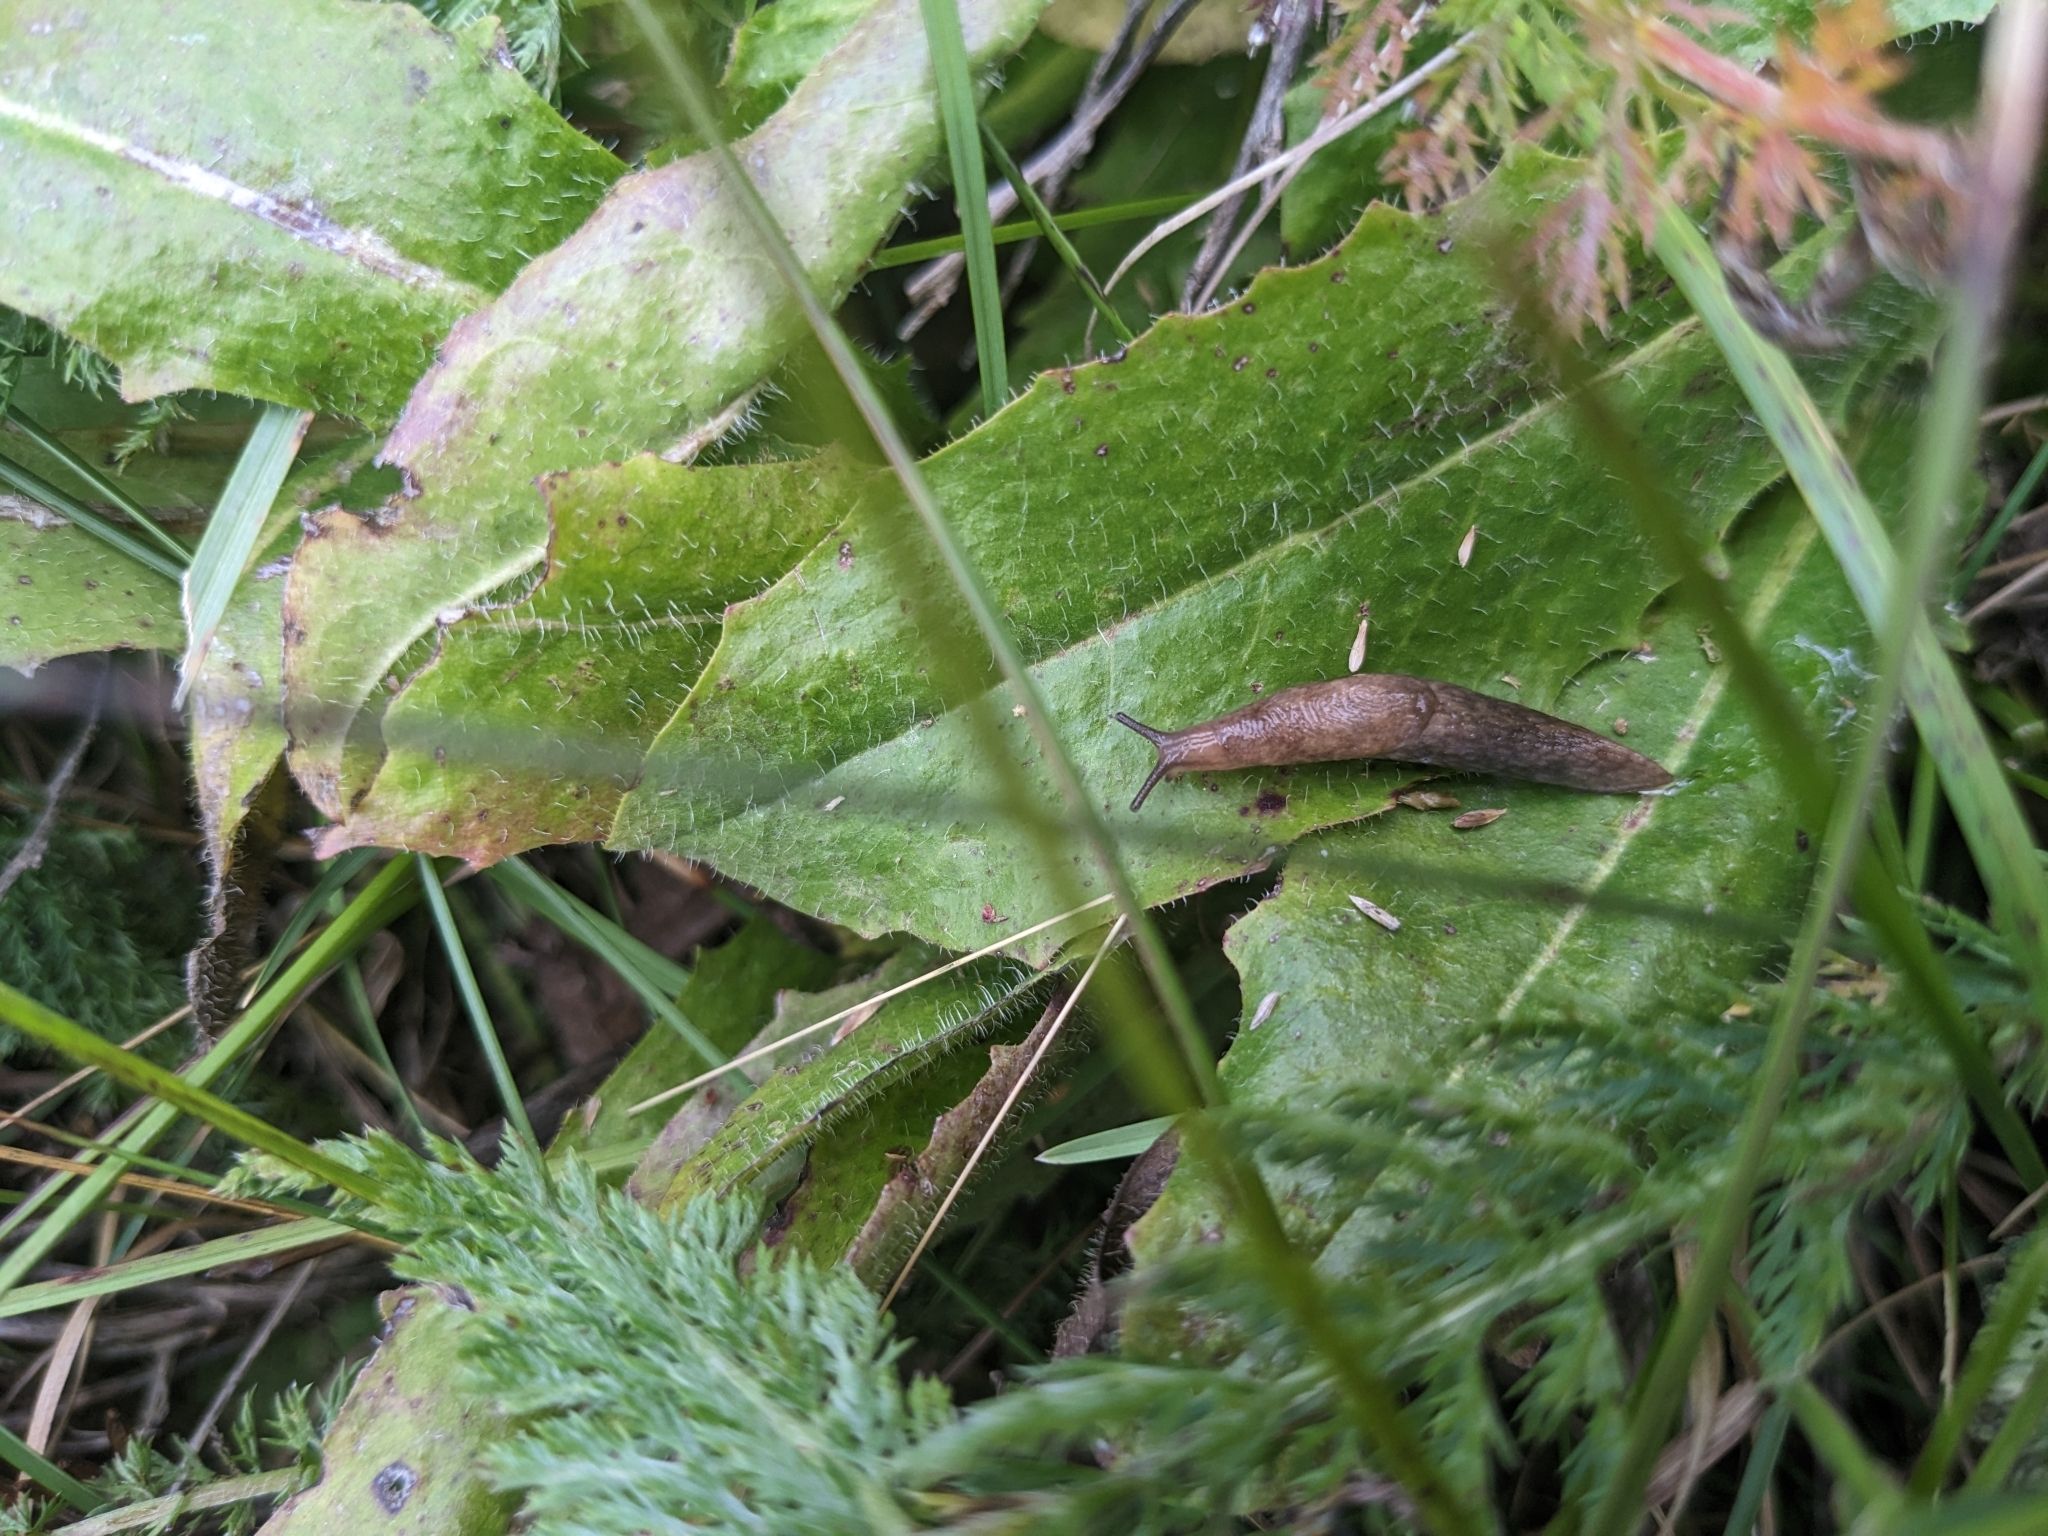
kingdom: Animalia
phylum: Mollusca
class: Gastropoda
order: Stylommatophora
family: Agriolimacidae
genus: Deroceras
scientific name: Deroceras reticulatum
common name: Gray field slug
